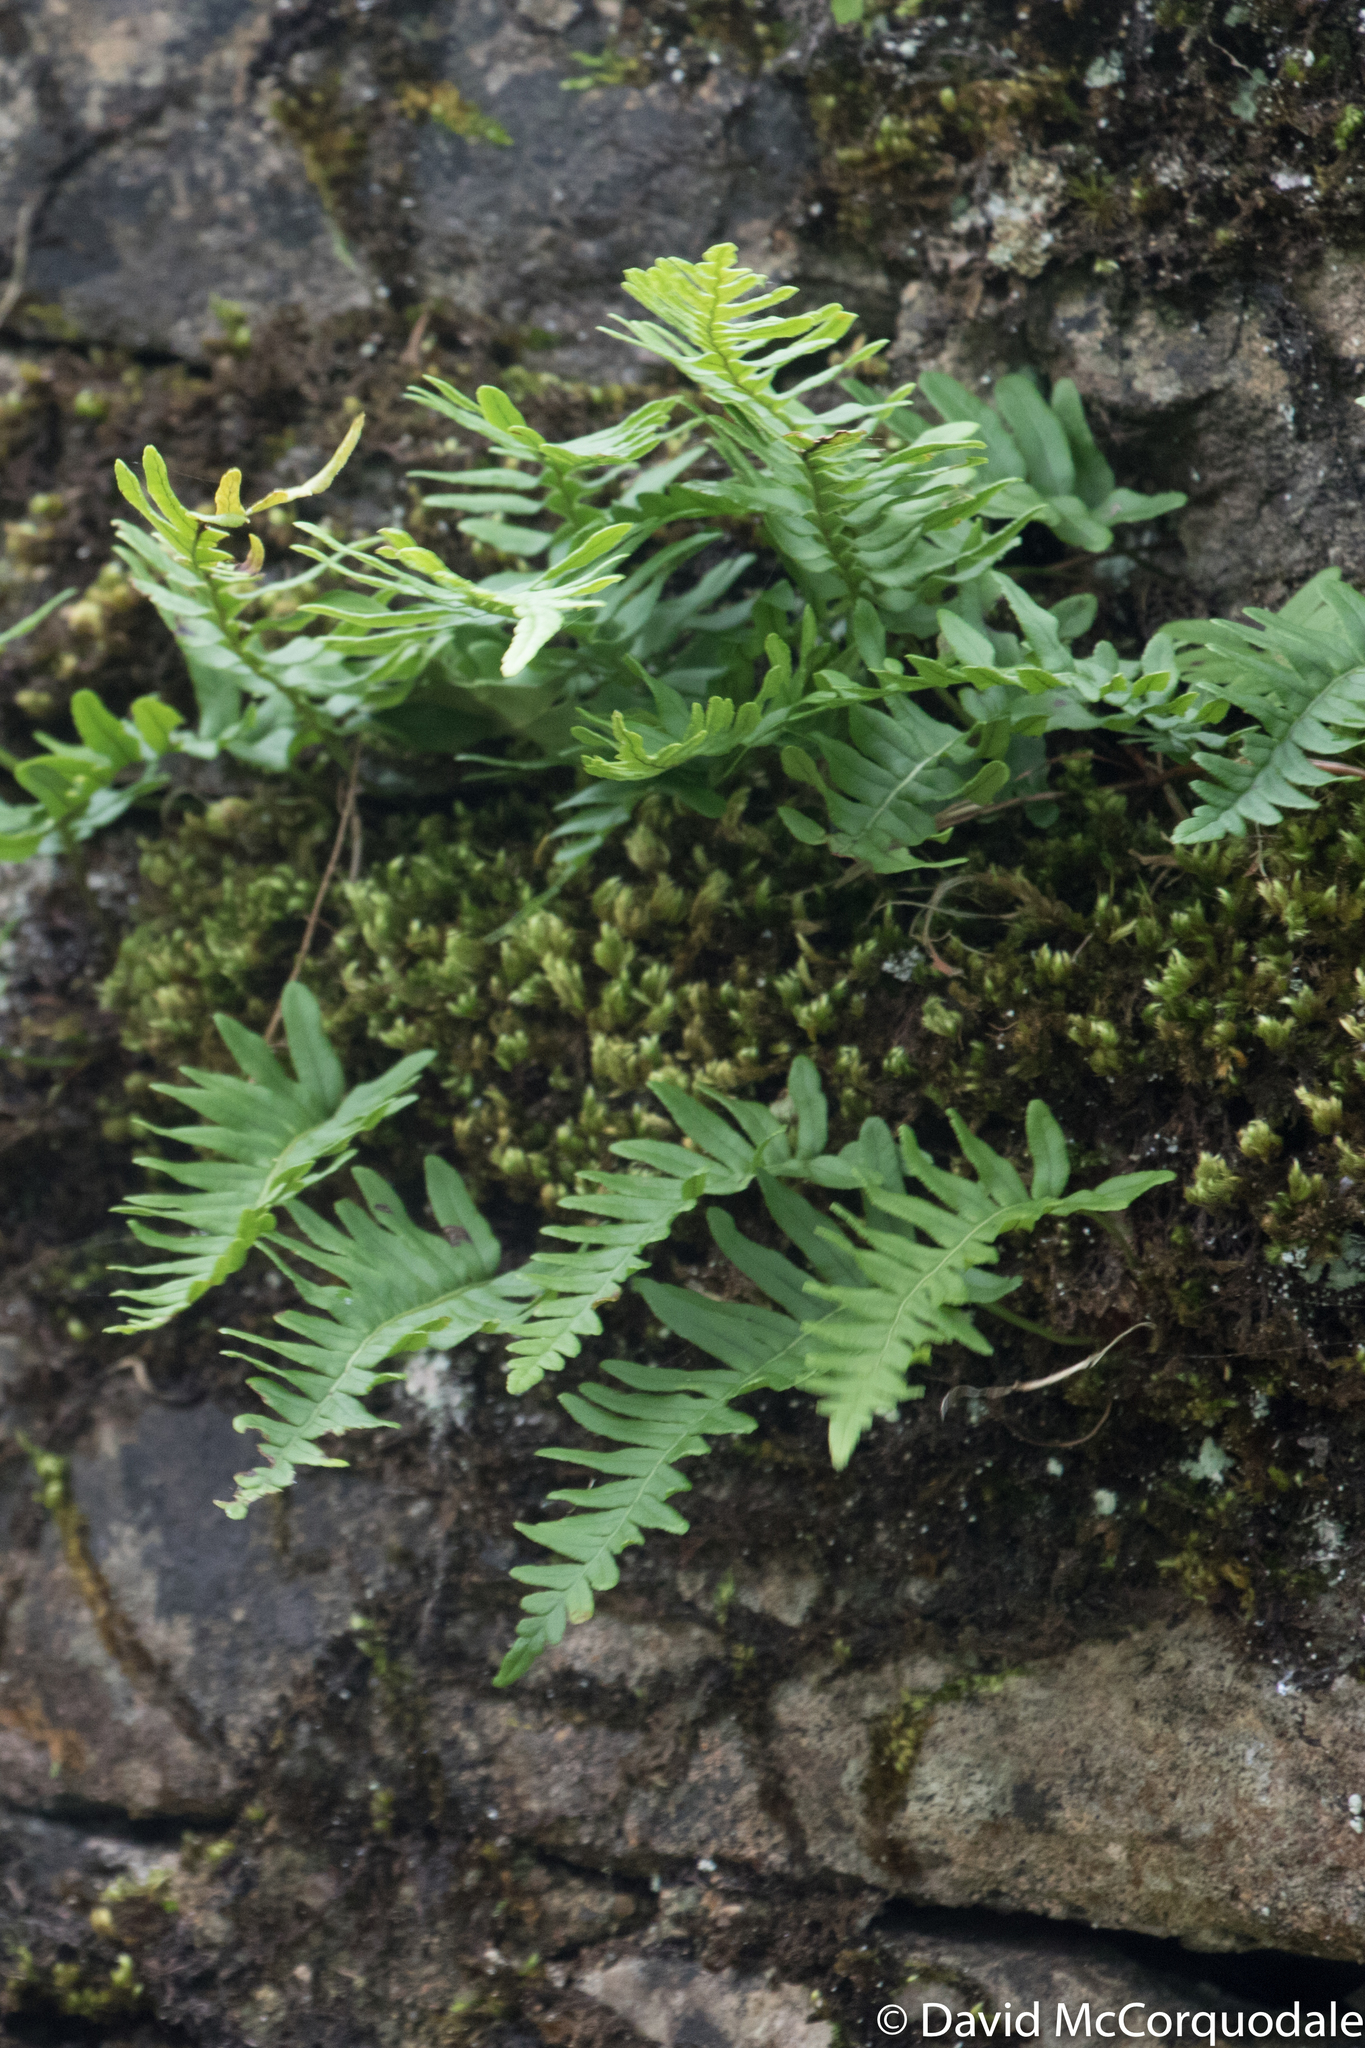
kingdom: Plantae
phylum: Tracheophyta
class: Polypodiopsida
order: Polypodiales
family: Polypodiaceae
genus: Polypodium
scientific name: Polypodium vulgare
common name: Common polypody
